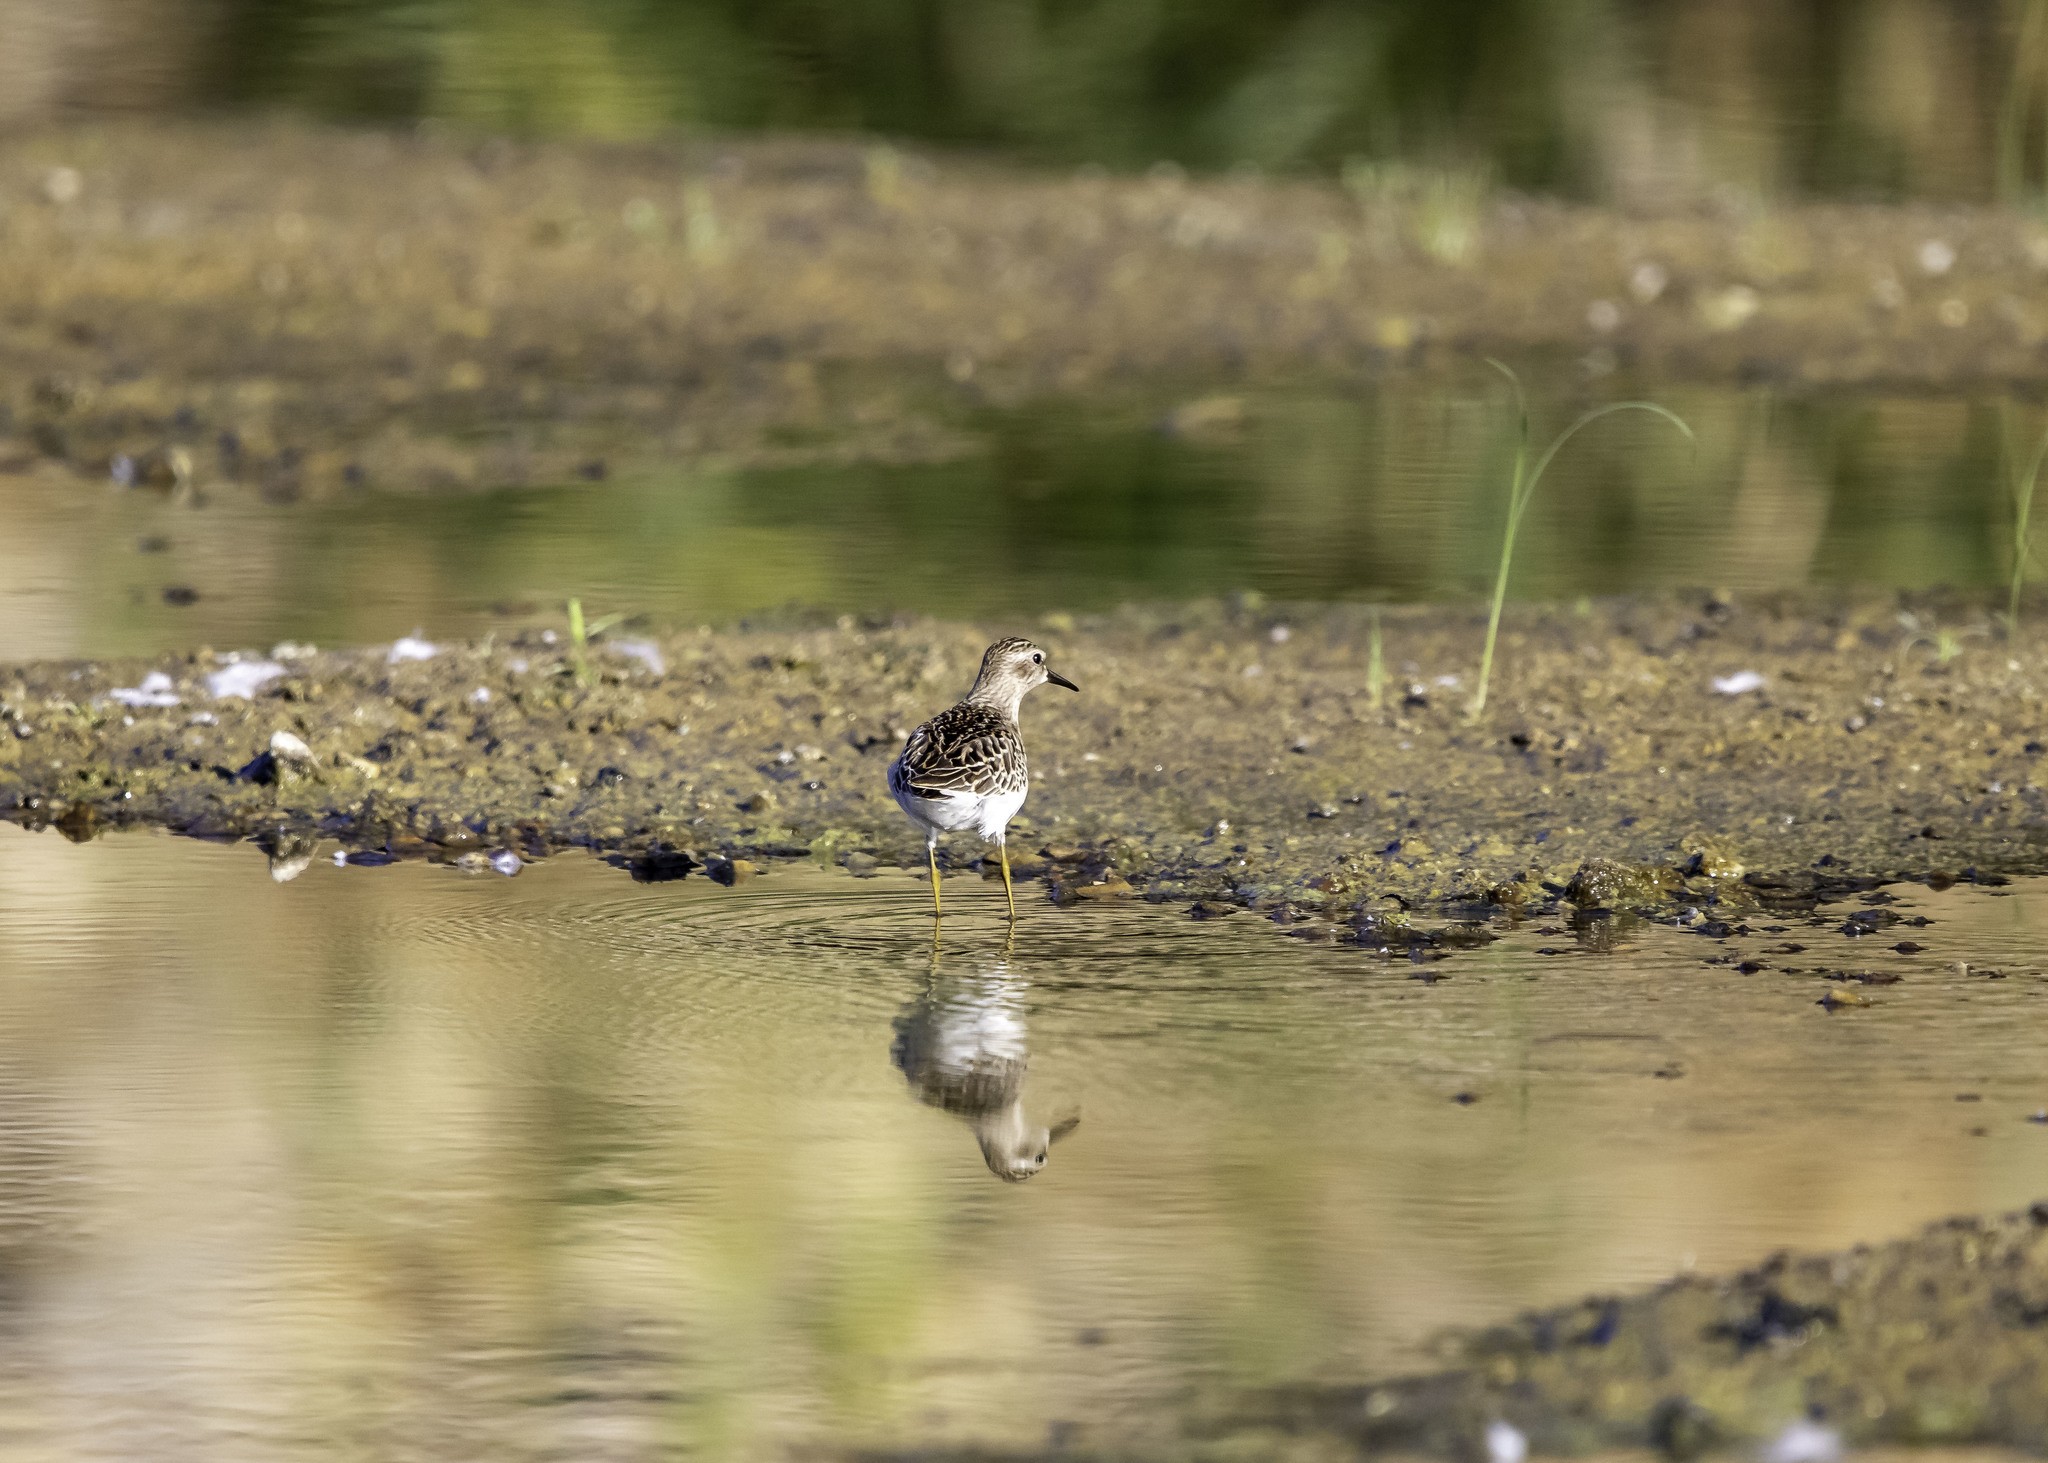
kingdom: Animalia
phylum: Chordata
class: Aves
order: Charadriiformes
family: Scolopacidae
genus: Calidris
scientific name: Calidris minutilla
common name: Least sandpiper
